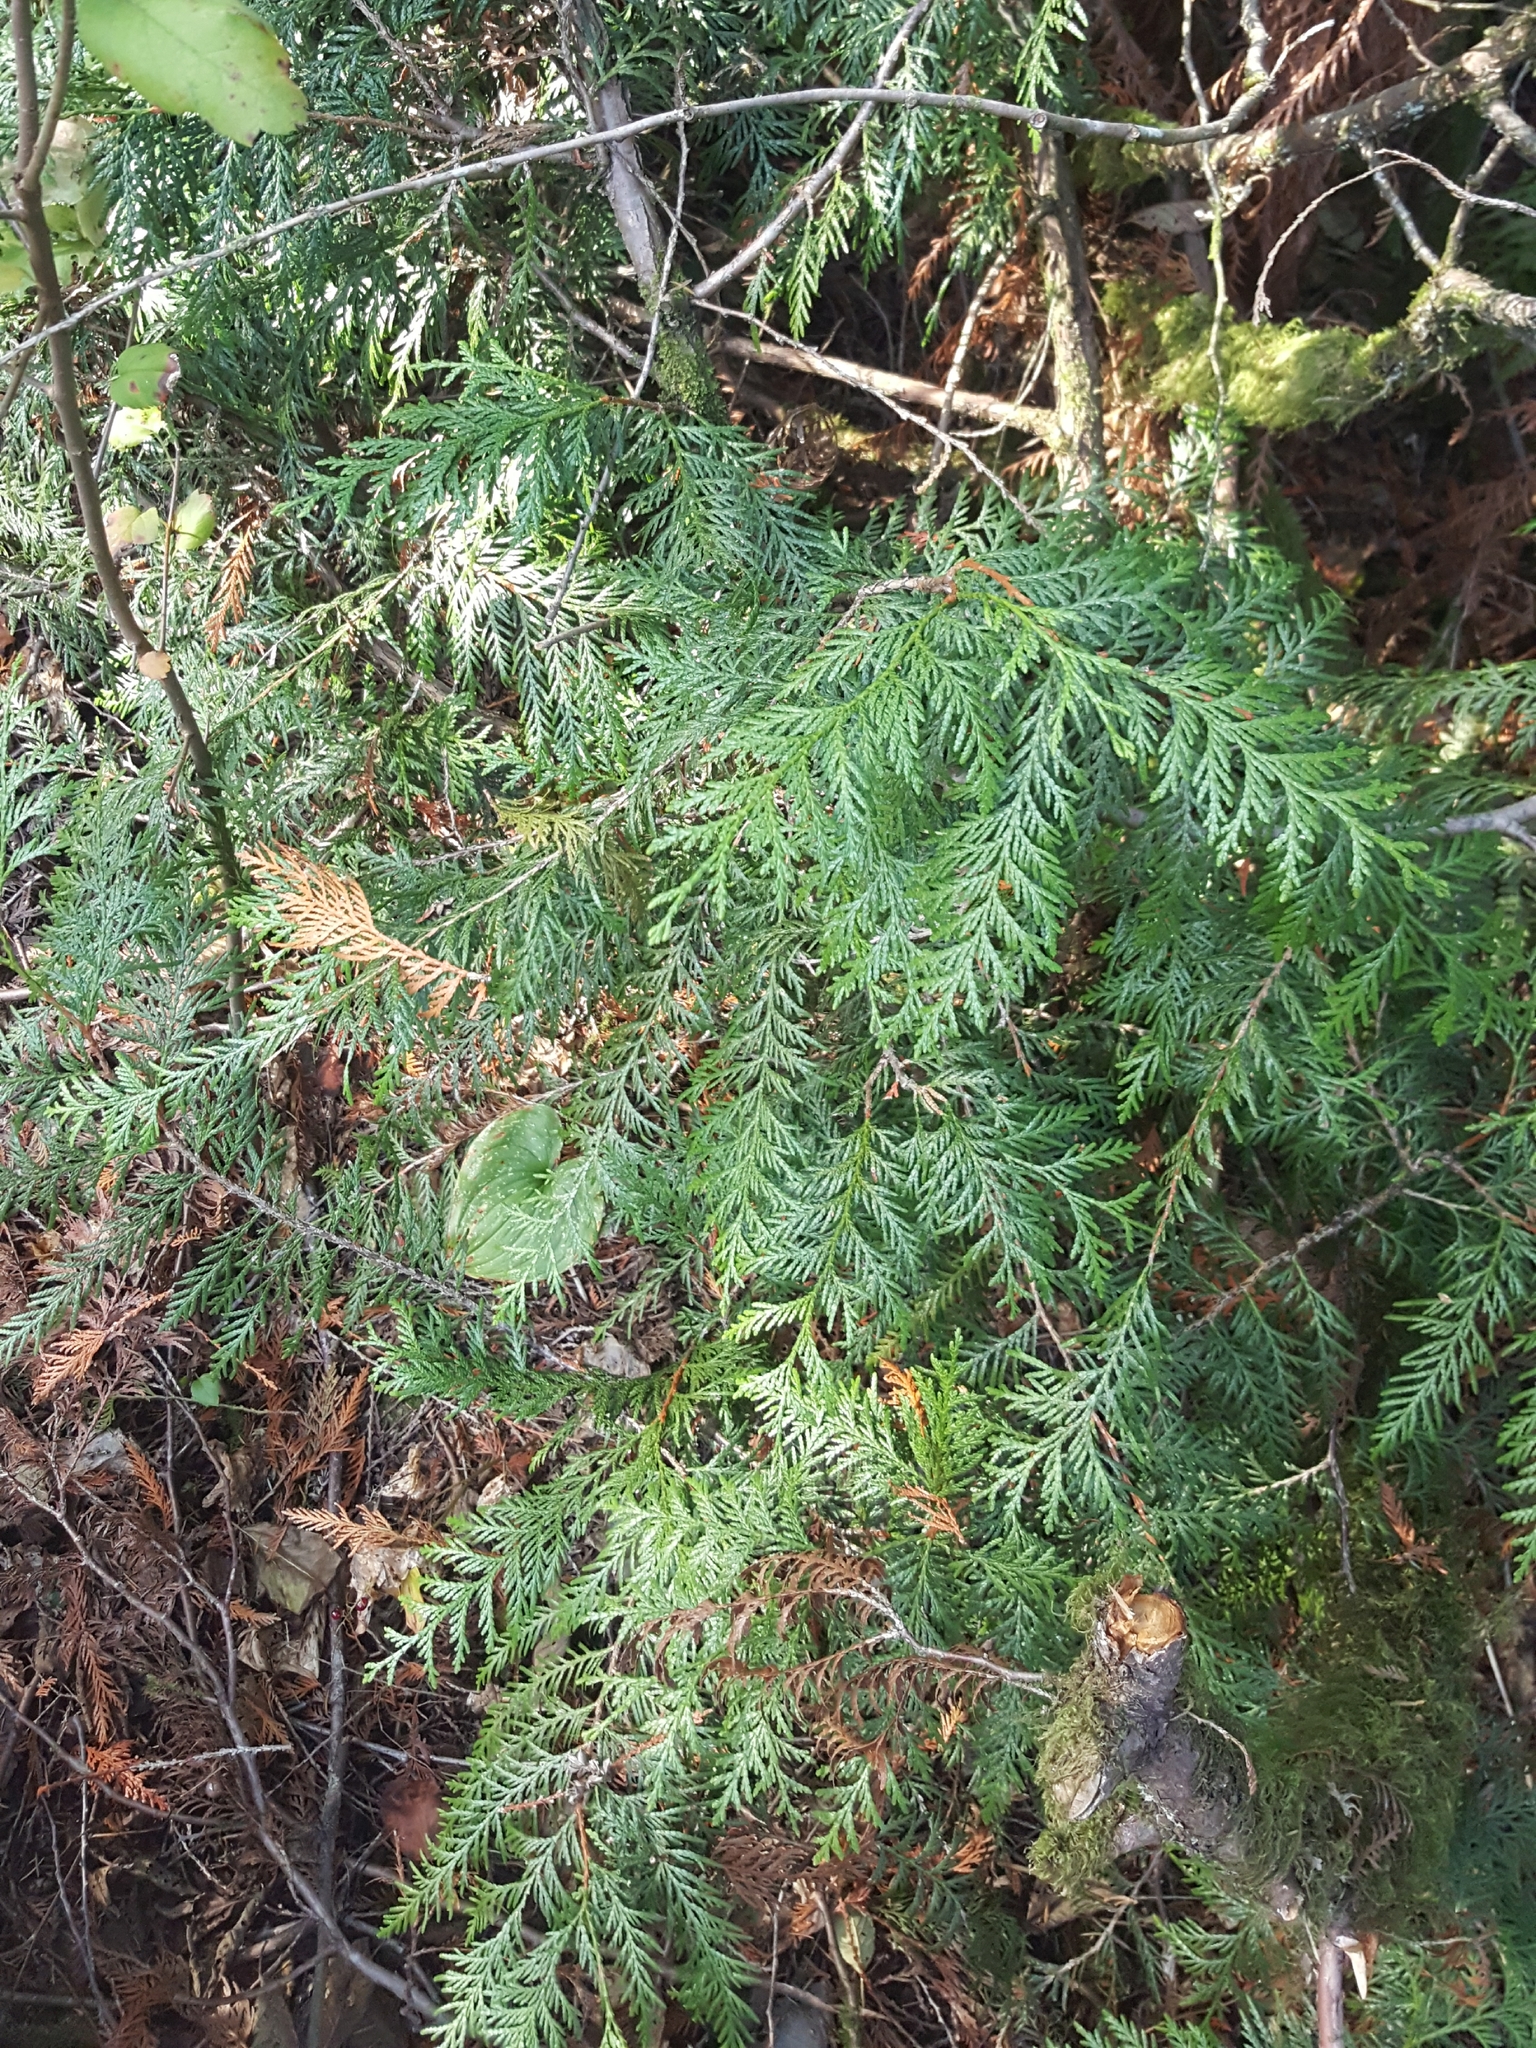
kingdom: Plantae
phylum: Tracheophyta
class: Pinopsida
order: Pinales
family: Cupressaceae
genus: Thuja
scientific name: Thuja plicata
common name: Western red-cedar
